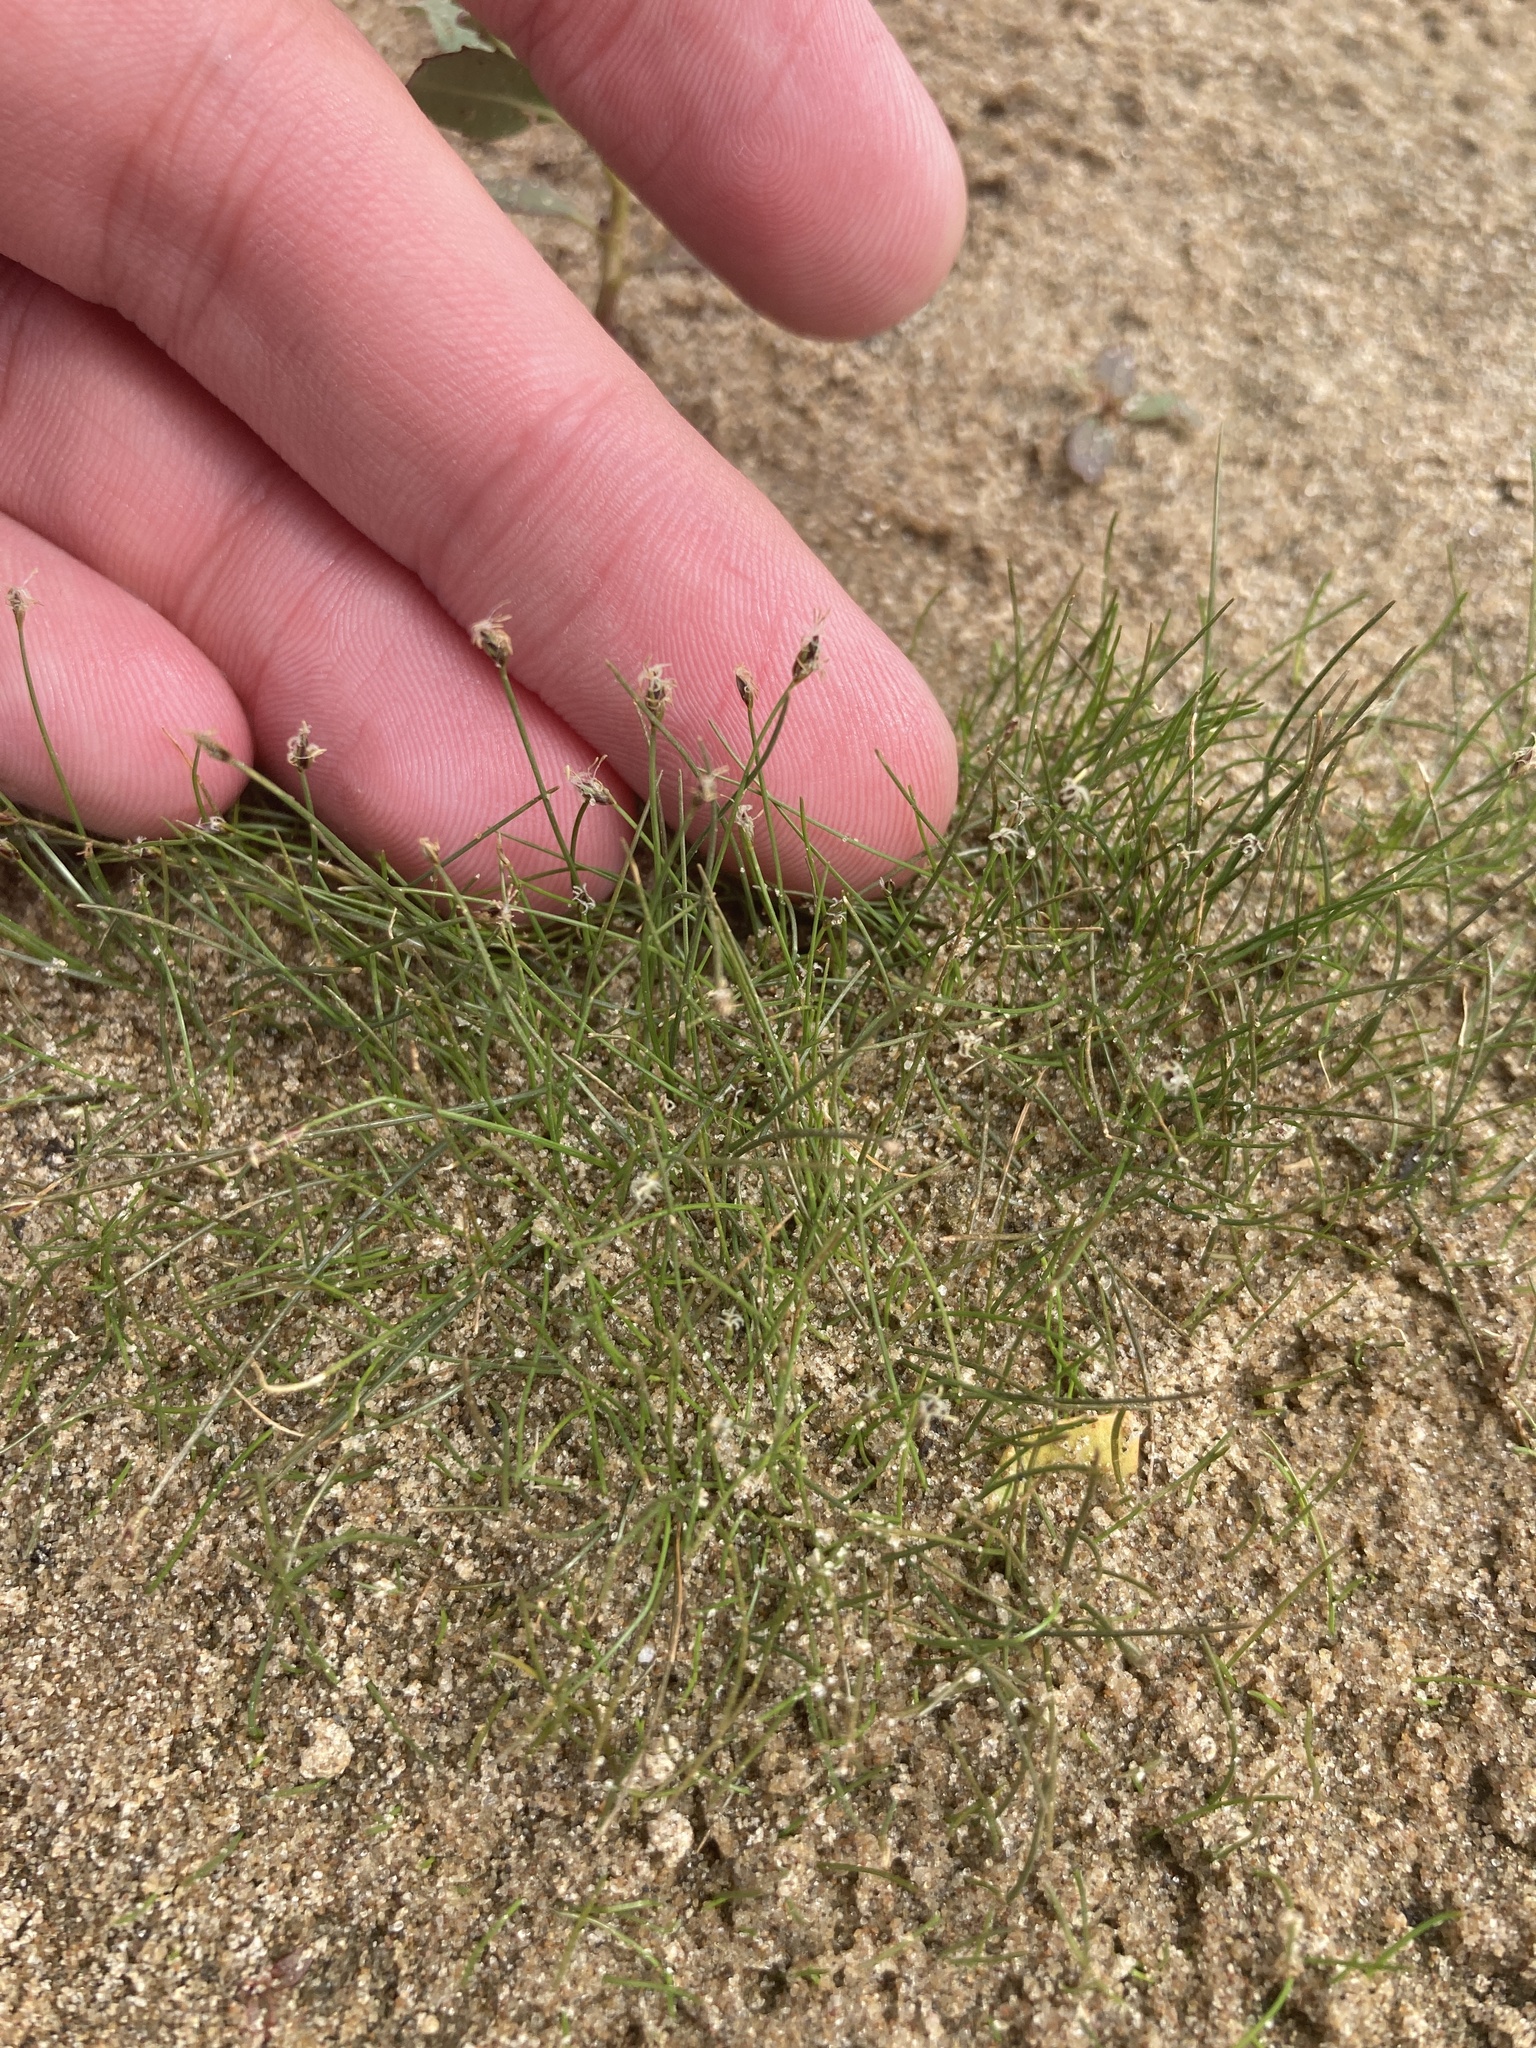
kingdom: Plantae
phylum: Tracheophyta
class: Liliopsida
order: Poales
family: Cyperaceae
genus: Eleocharis
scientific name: Eleocharis acicularis
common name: Needle spike-rush
